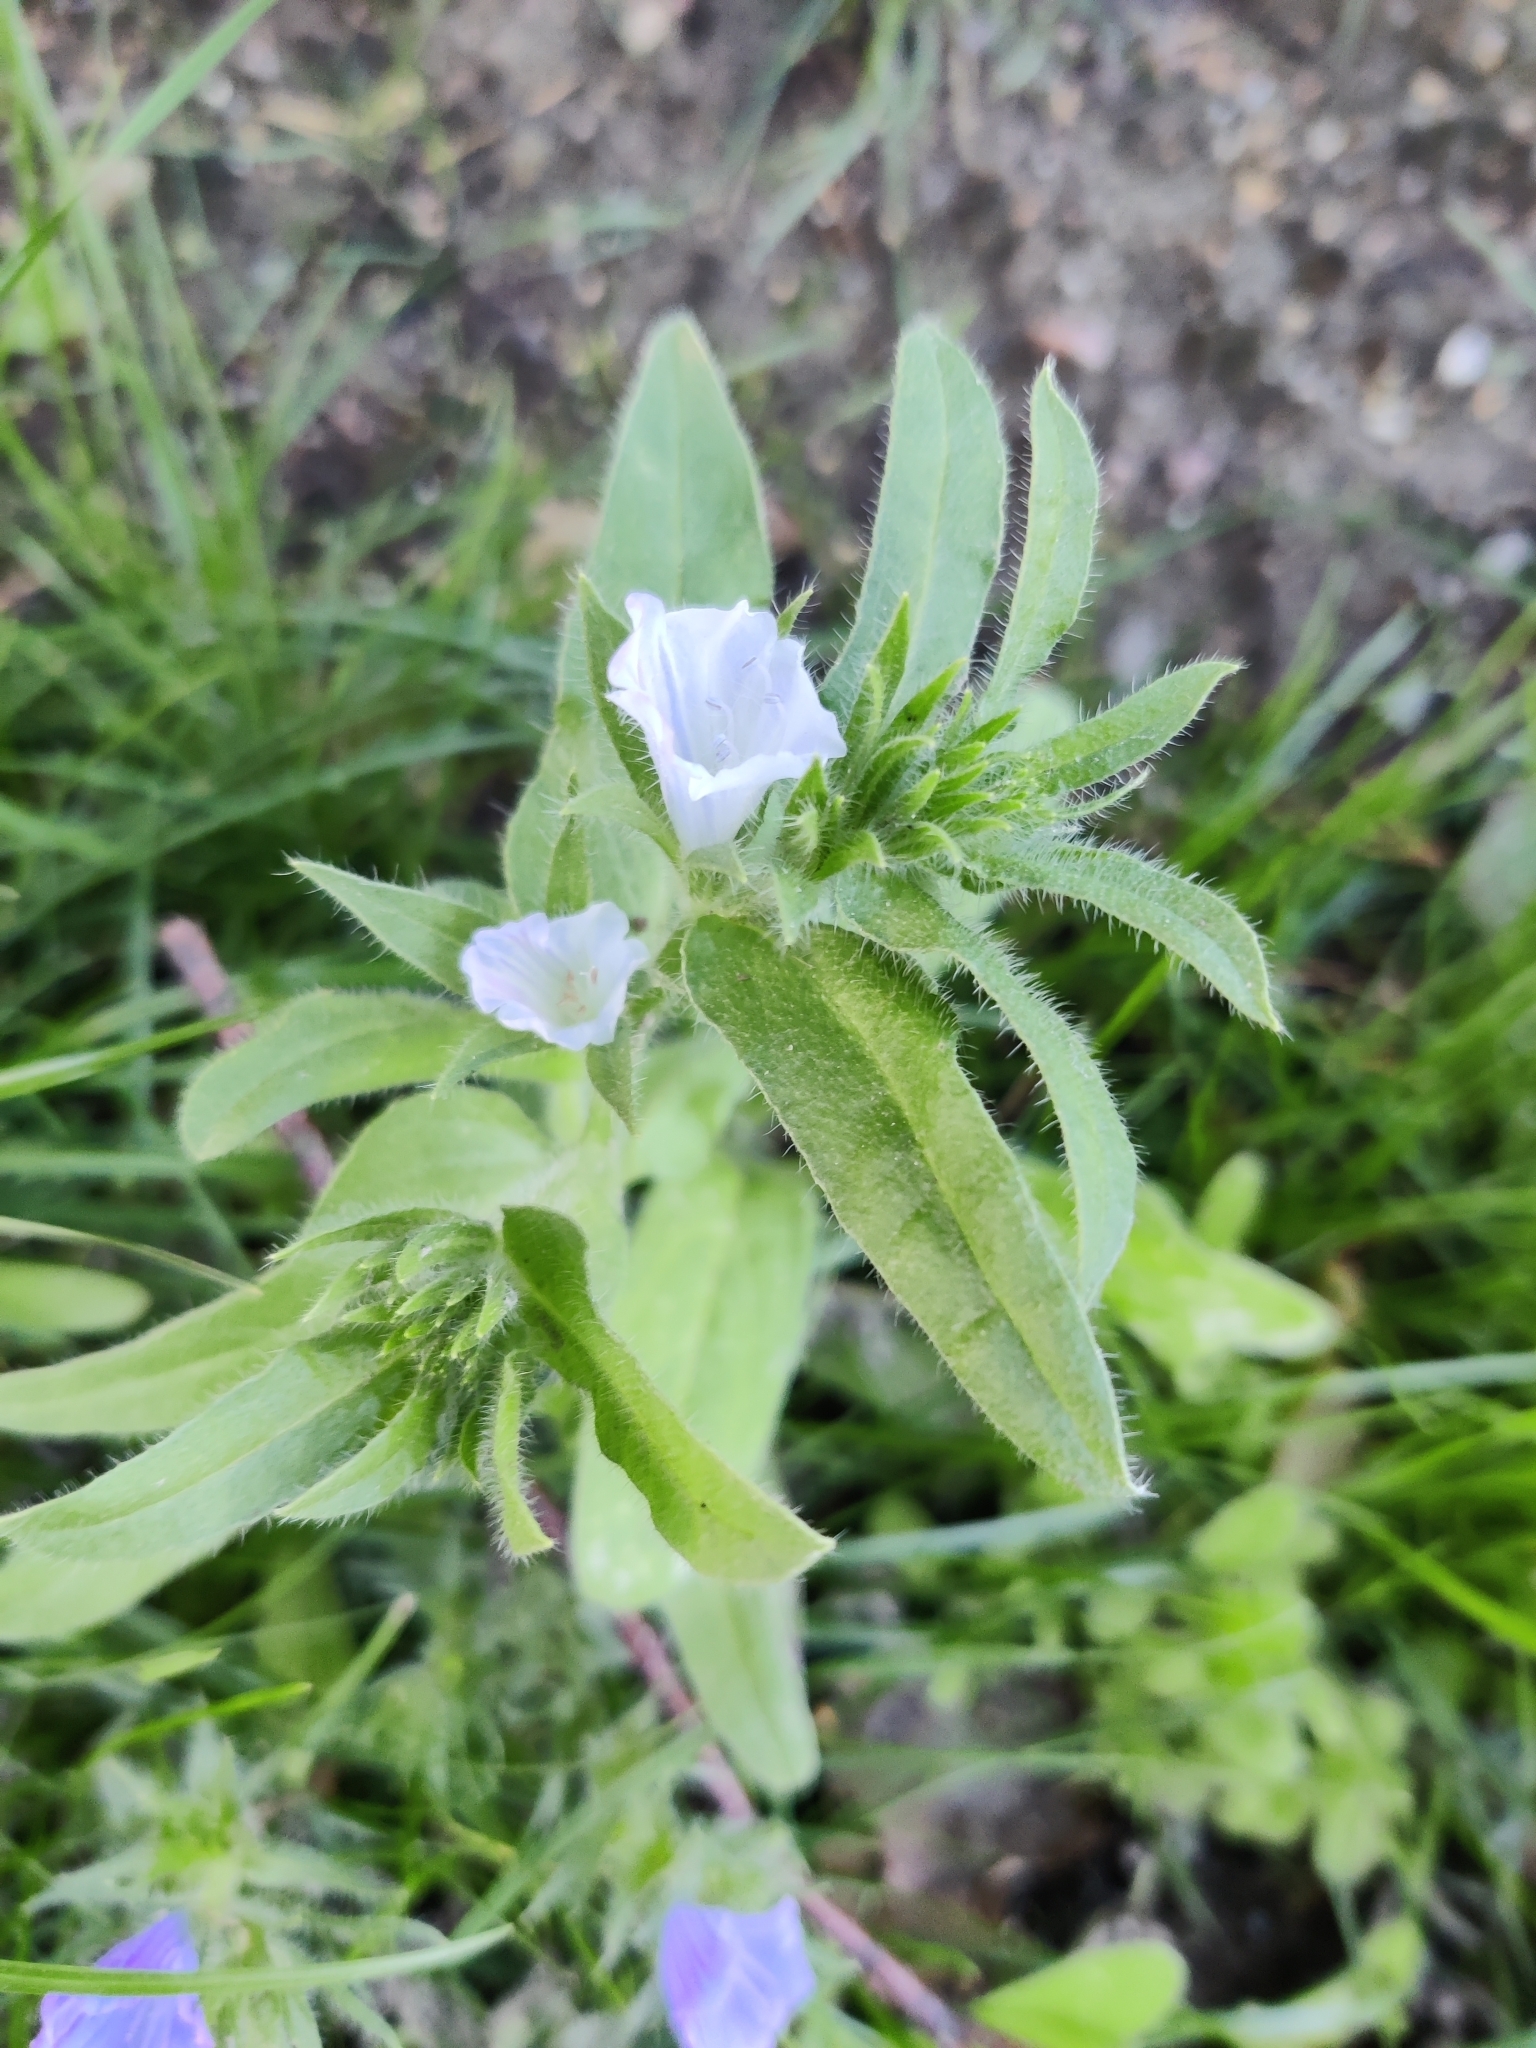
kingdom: Plantae
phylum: Tracheophyta
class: Magnoliopsida
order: Boraginales
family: Boraginaceae
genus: Echium
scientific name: Echium vulgare
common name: Common viper's bugloss
